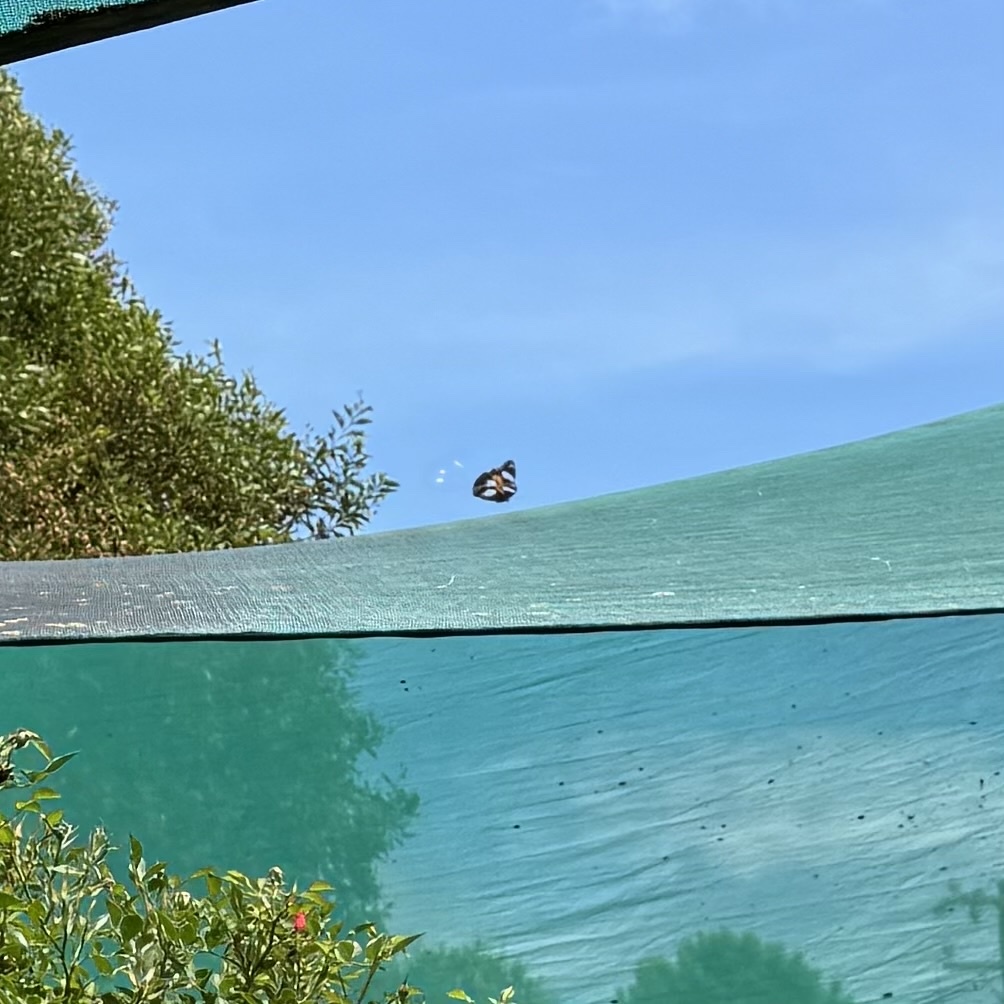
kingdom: Animalia
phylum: Arthropoda
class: Insecta
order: Lepidoptera
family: Nymphalidae
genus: Hypolimnas
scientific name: Hypolimnas bolina
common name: Great eggfly
